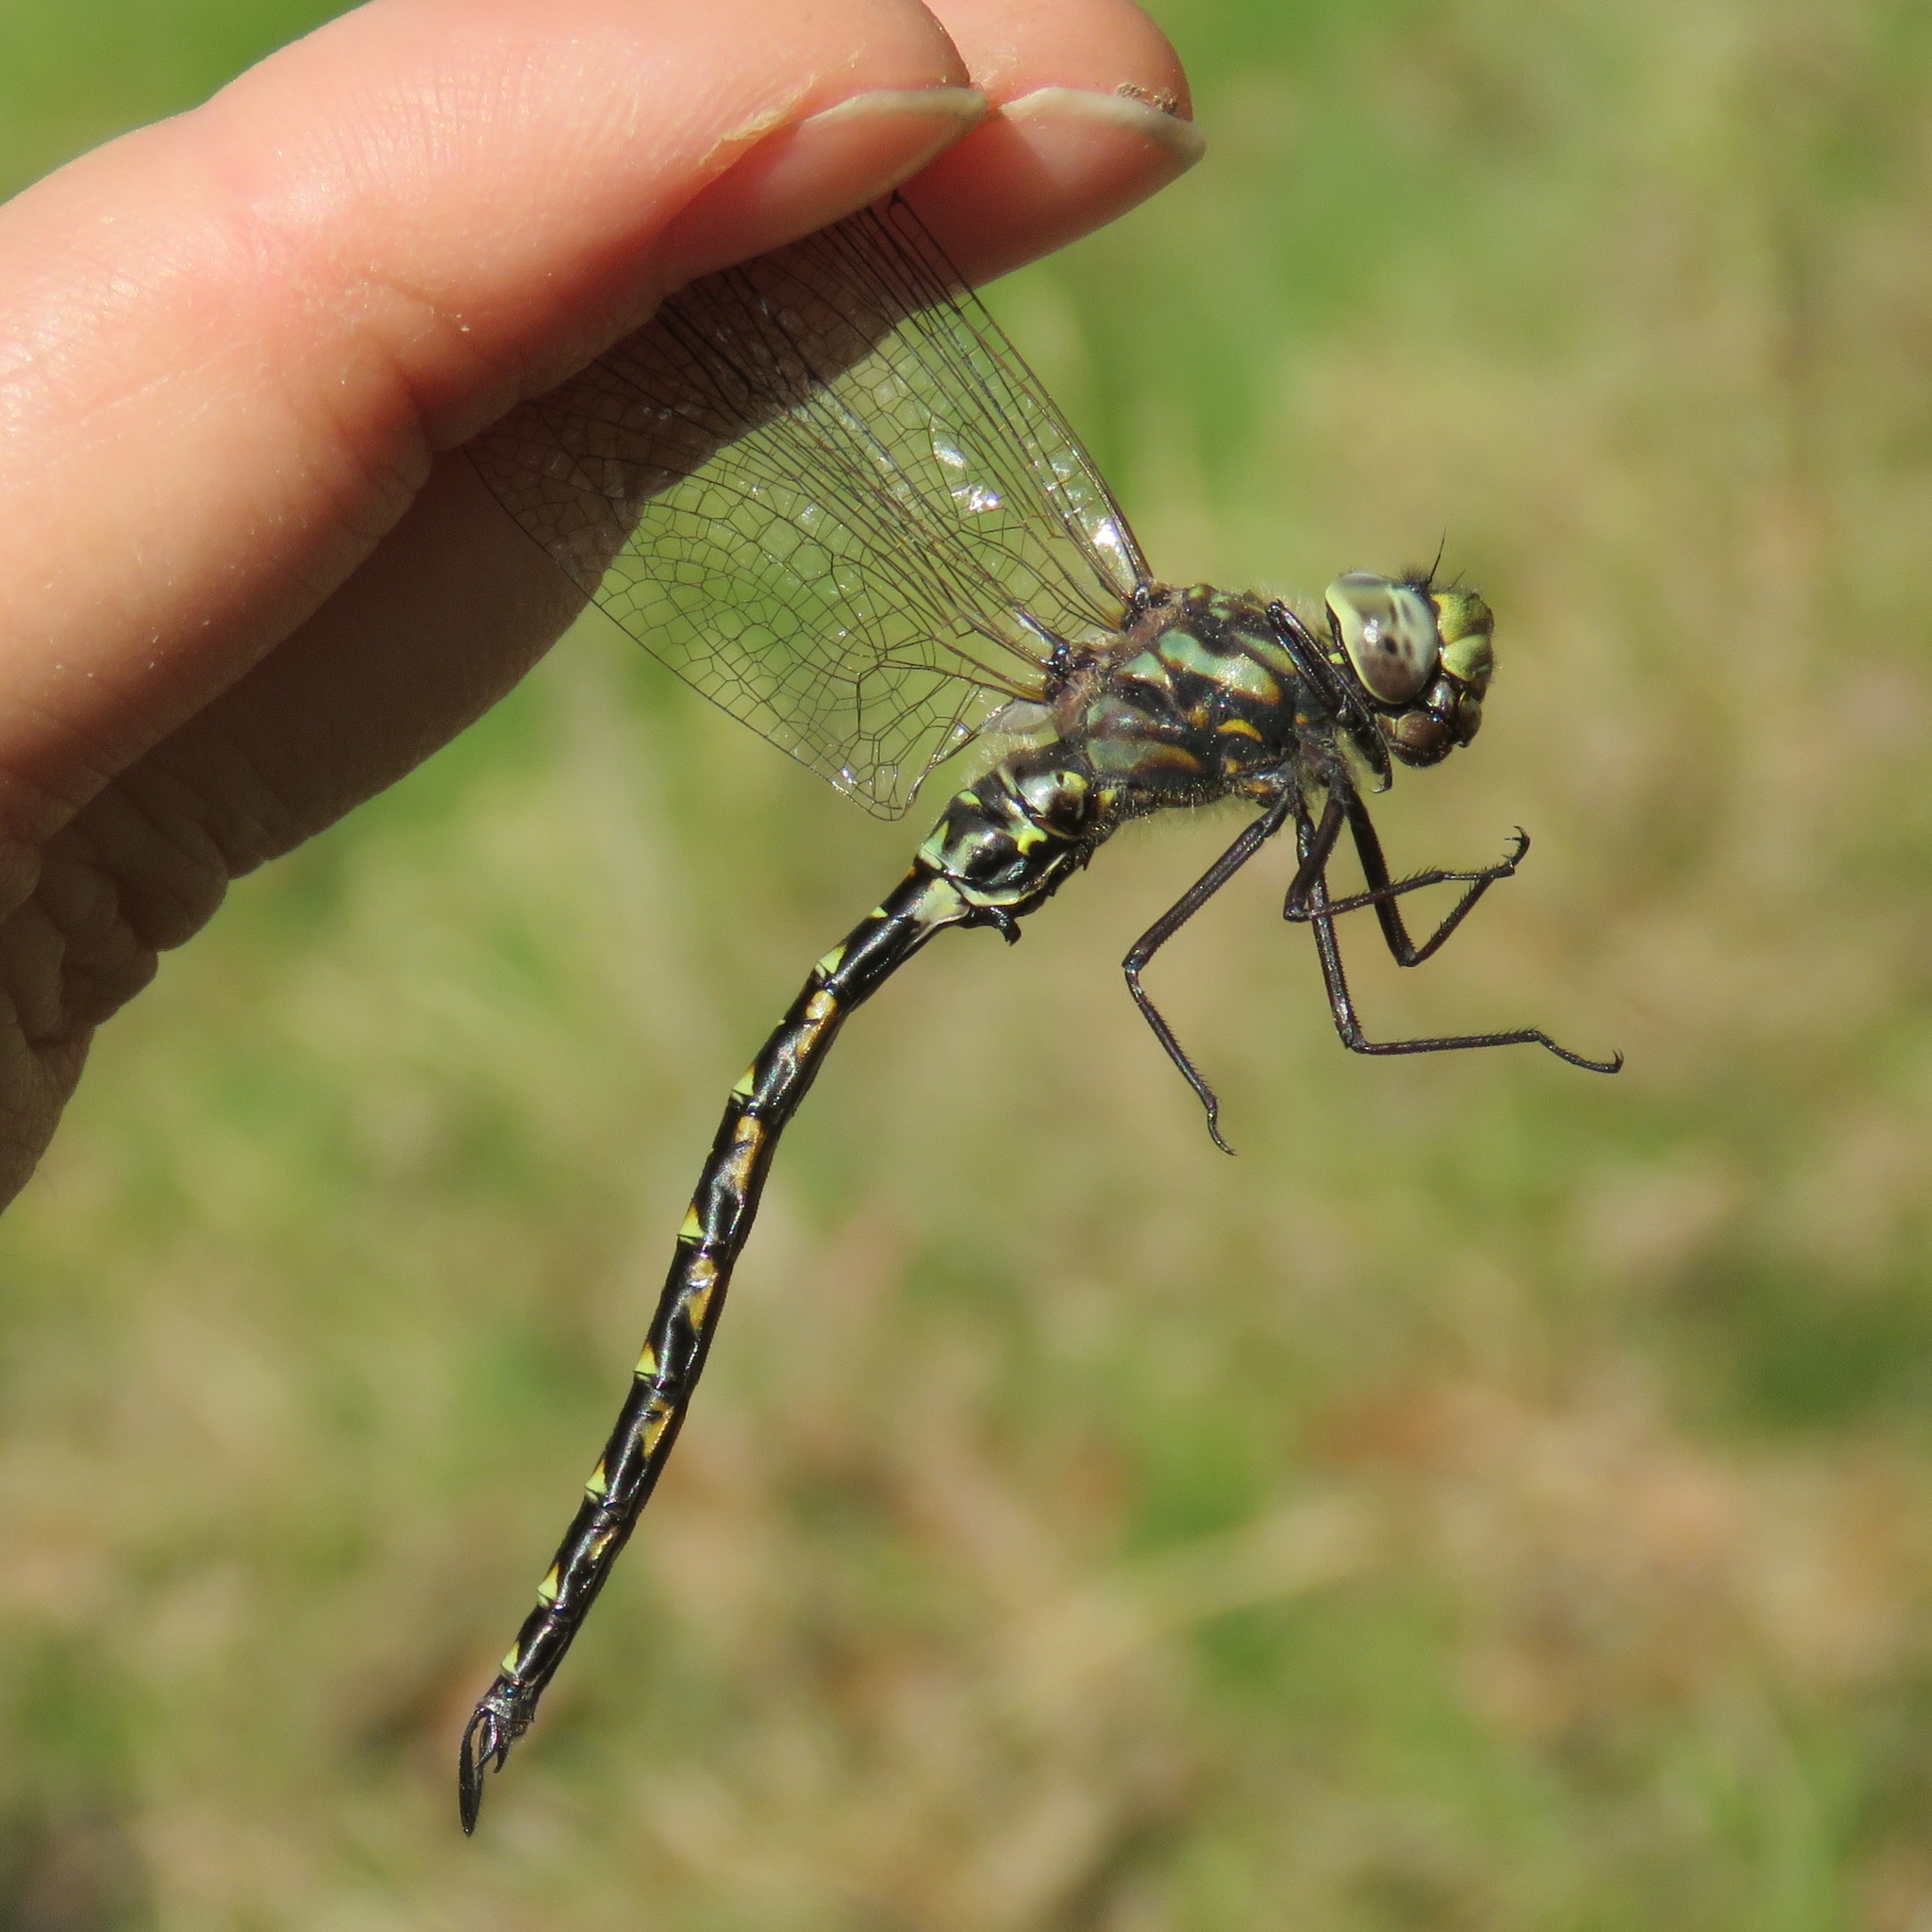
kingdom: Animalia
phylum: Arthropoda
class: Insecta
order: Odonata
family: Aeshnidae
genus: Gomphaeschna
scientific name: Gomphaeschna furcillata
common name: Harlequin darner
